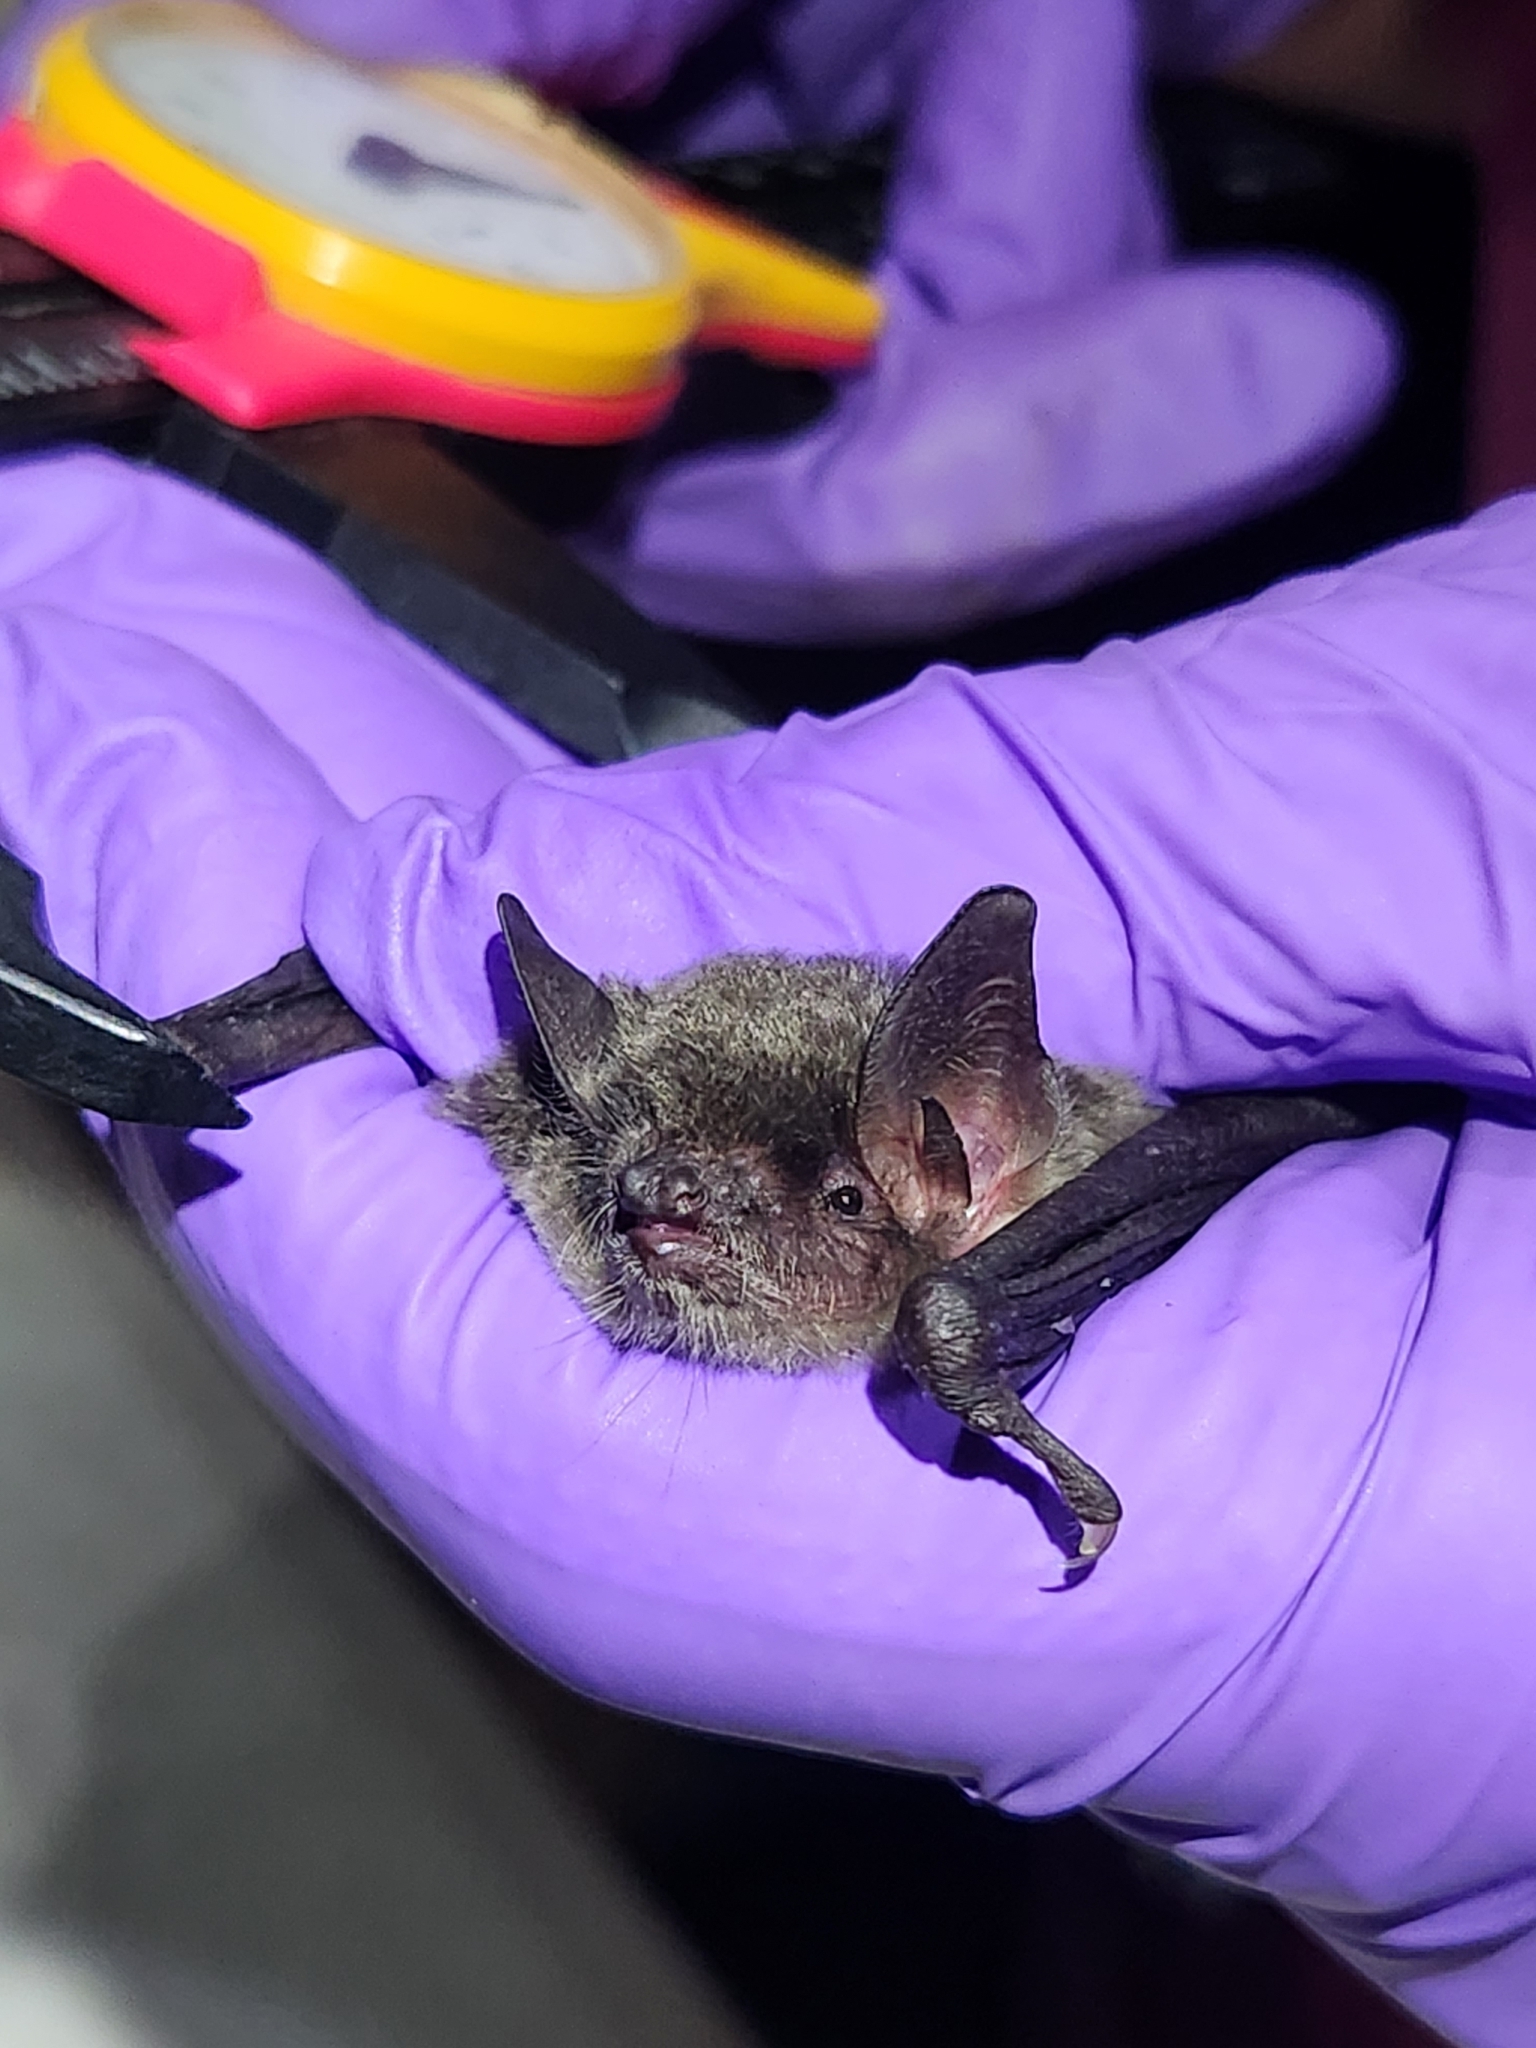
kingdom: Animalia
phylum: Chordata
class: Mammalia
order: Chiroptera
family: Vespertilionidae
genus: Myotis
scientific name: Myotis grisescens
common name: Gray myotis
